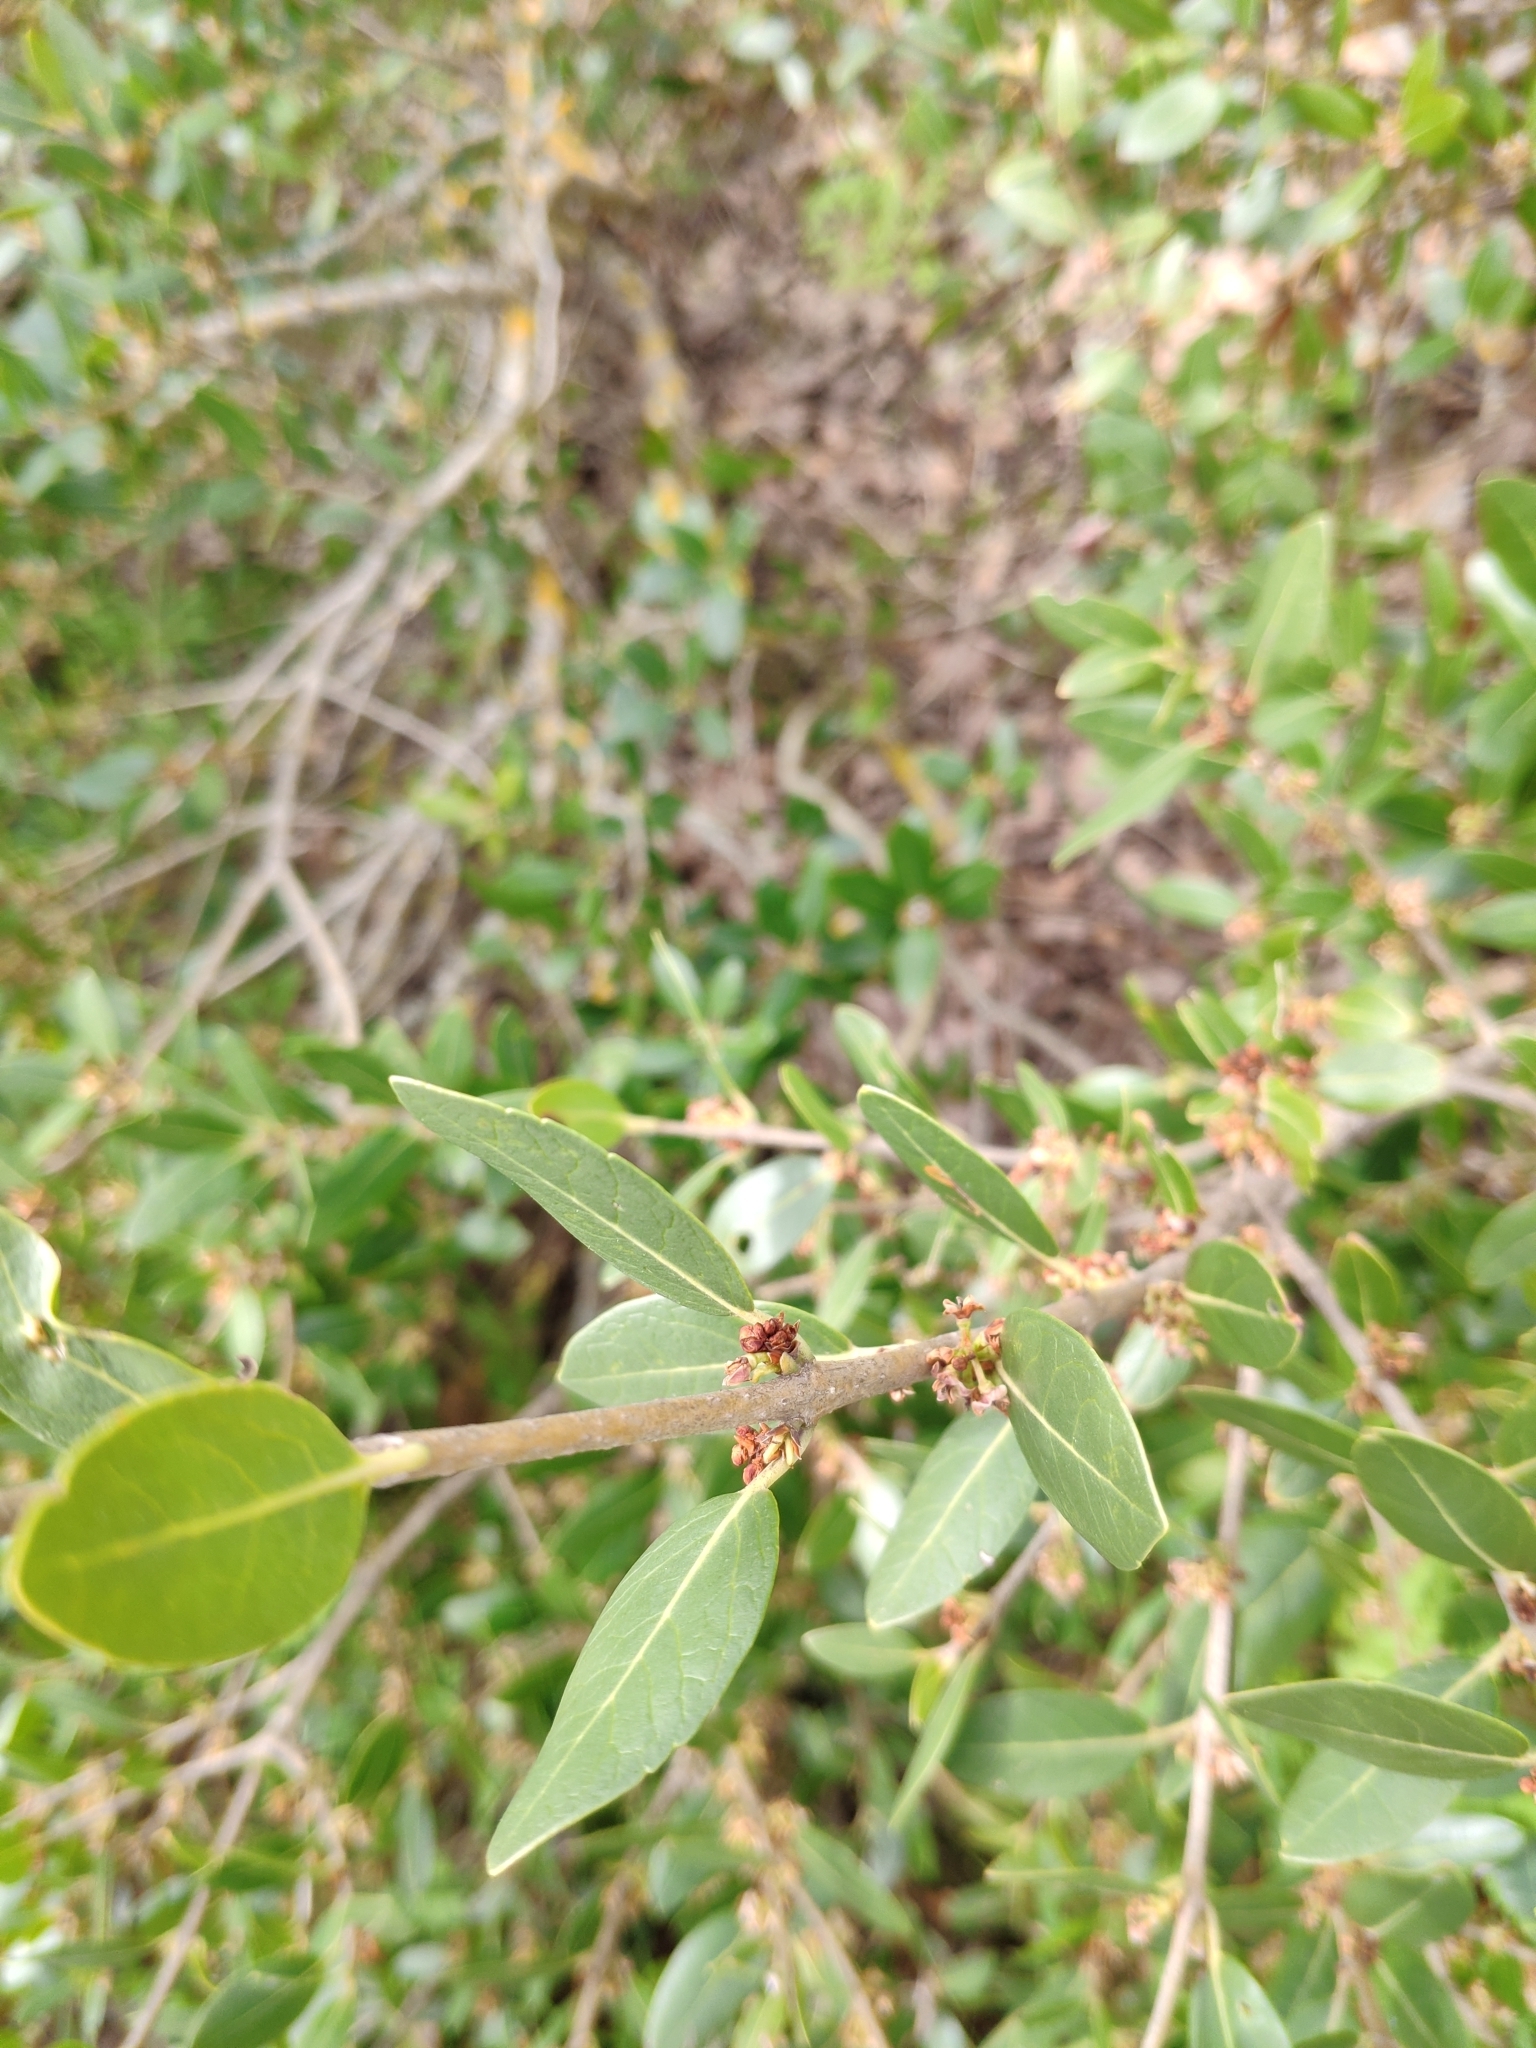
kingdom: Plantae
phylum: Tracheophyta
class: Magnoliopsida
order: Lamiales
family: Oleaceae
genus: Phillyrea
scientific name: Phillyrea latifolia
